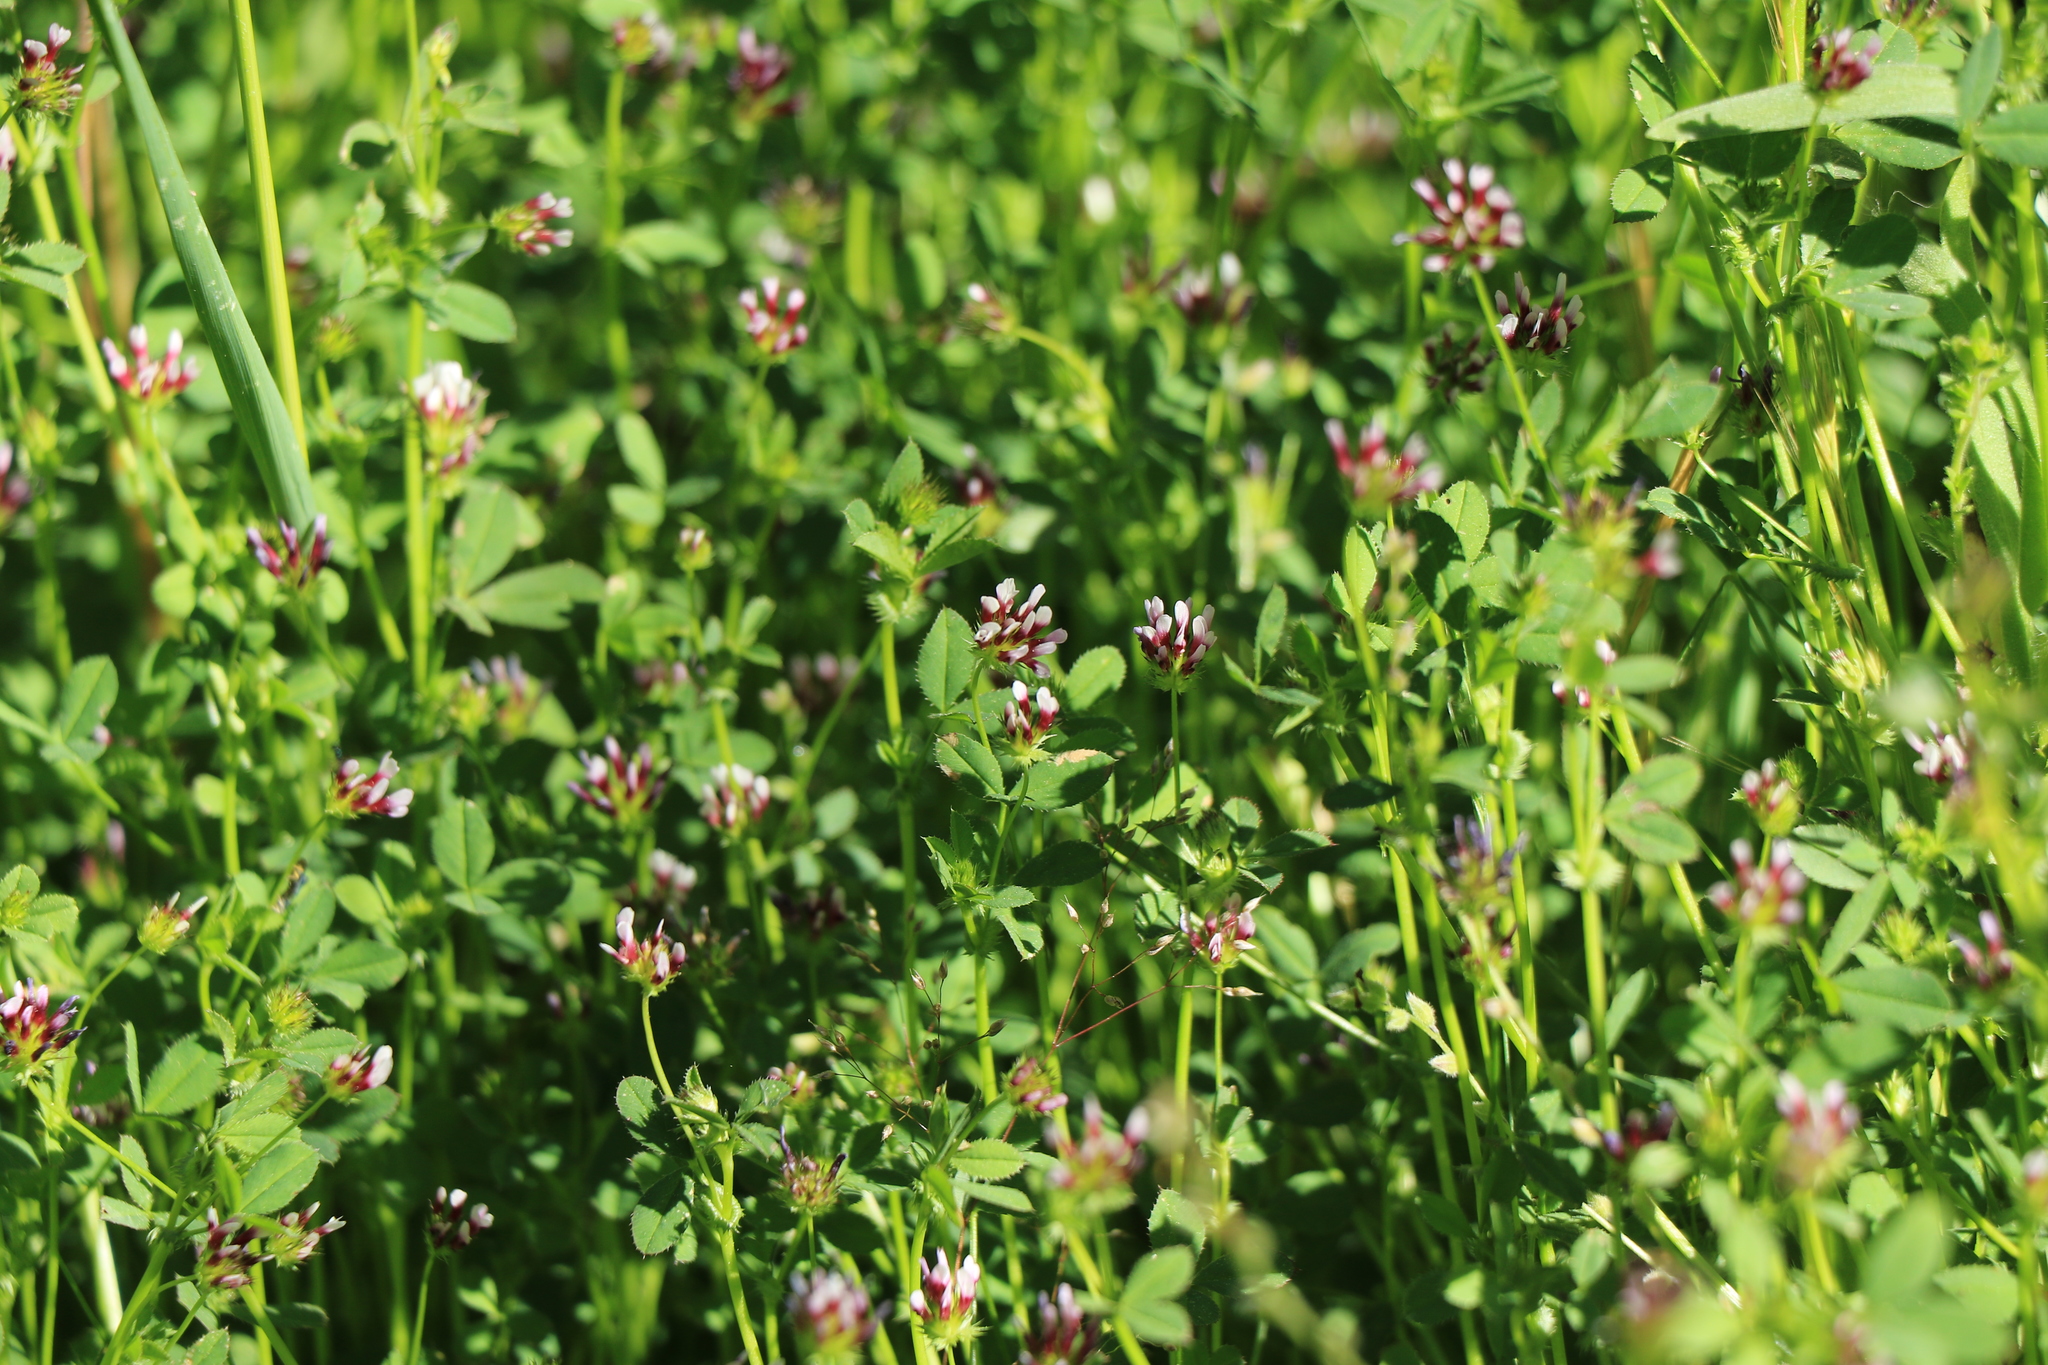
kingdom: Plantae
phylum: Tracheophyta
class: Magnoliopsida
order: Fabales
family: Fabaceae
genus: Trifolium
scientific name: Trifolium variegatum
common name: Whitetip clover
